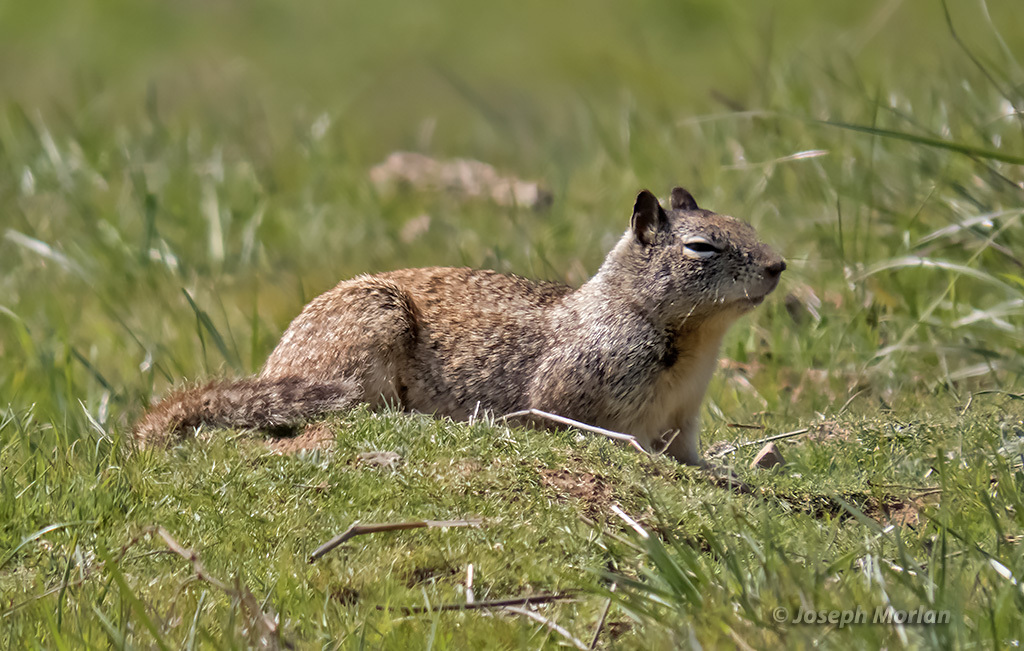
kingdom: Animalia
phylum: Chordata
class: Mammalia
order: Rodentia
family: Sciuridae
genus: Otospermophilus
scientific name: Otospermophilus beecheyi
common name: California ground squirrel
